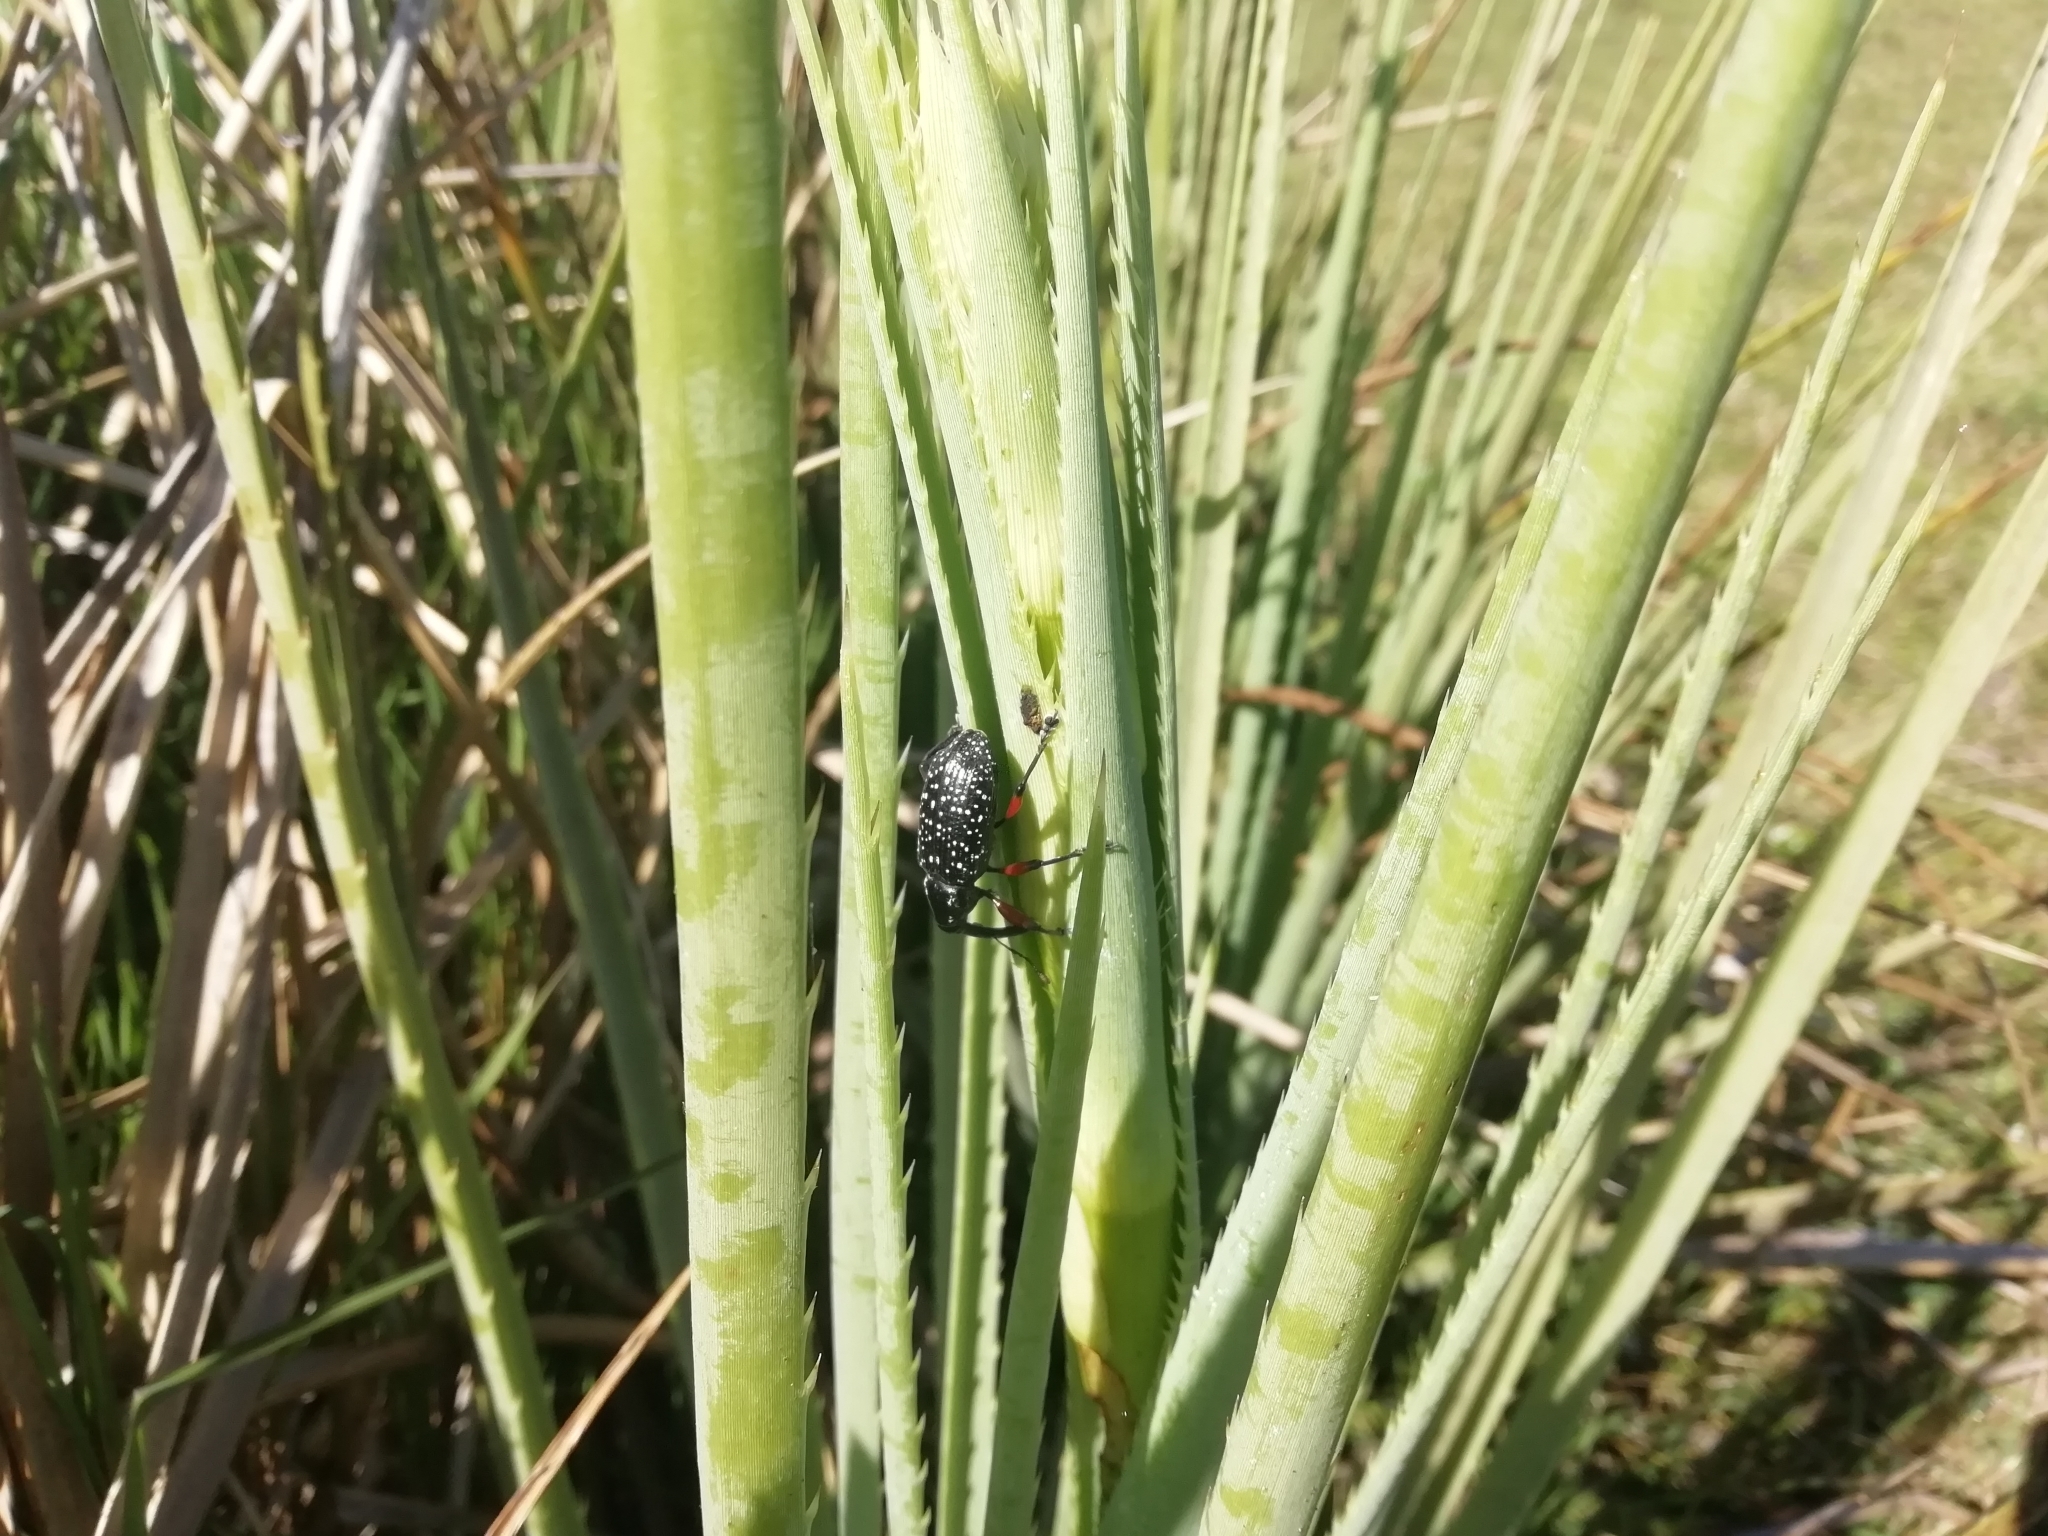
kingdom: Animalia
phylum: Arthropoda
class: Insecta
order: Coleoptera
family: Curculionidae
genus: Heilipodus
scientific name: Heilipodus erythropus
